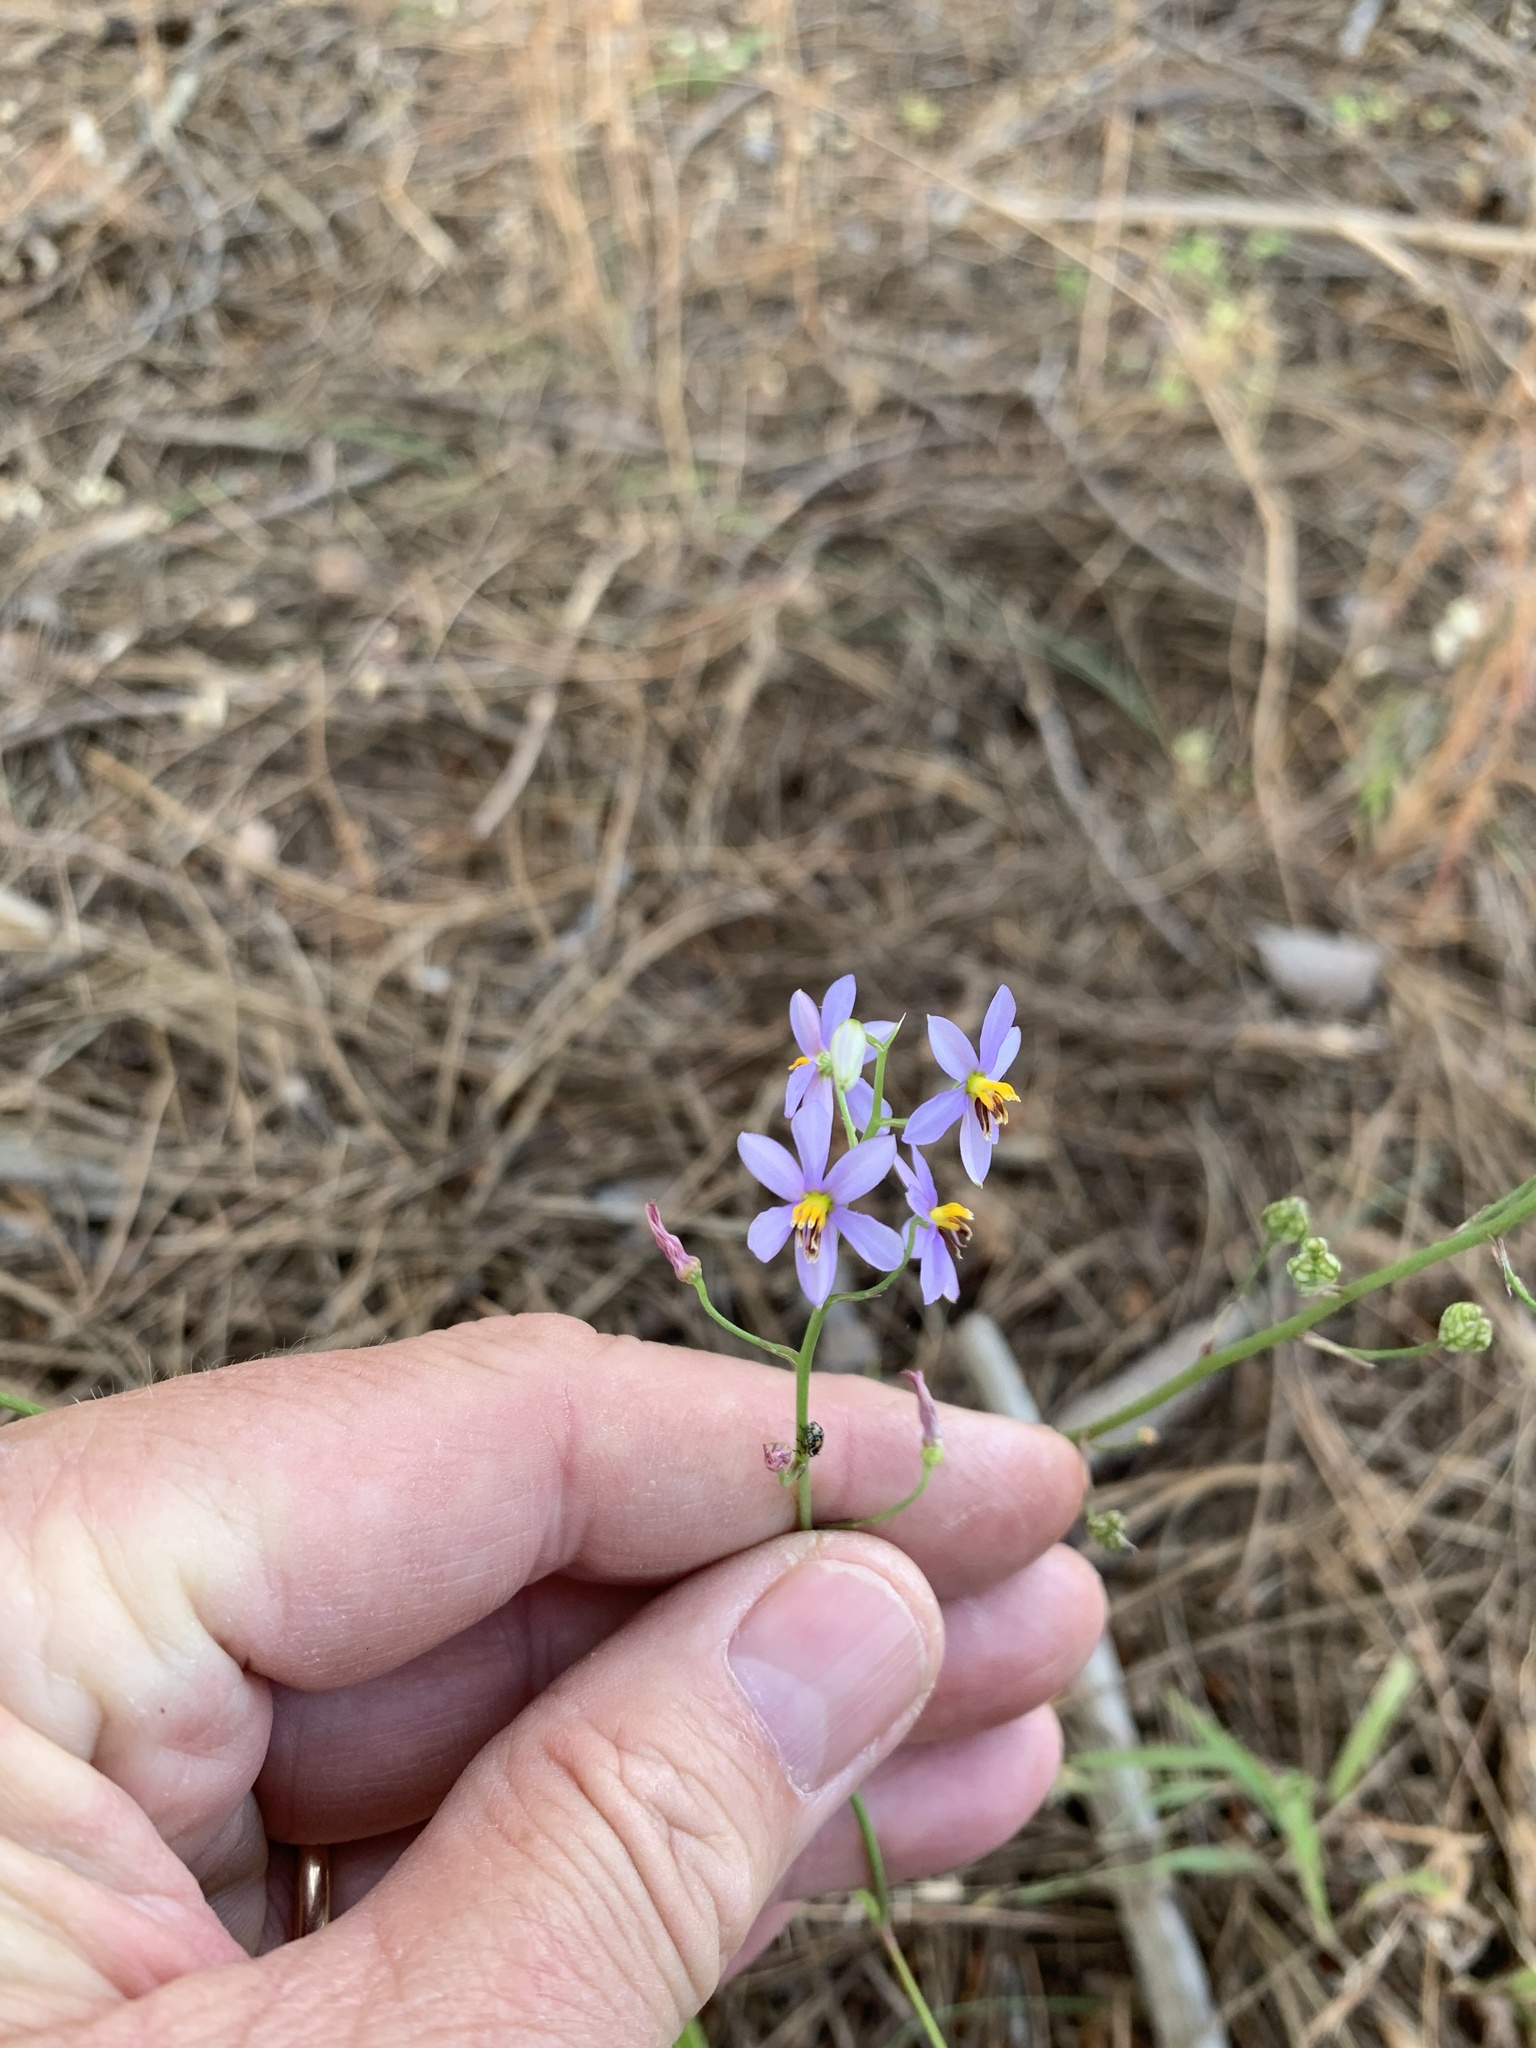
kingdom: Plantae
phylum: Tracheophyta
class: Liliopsida
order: Asparagales
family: Tecophilaeaceae
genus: Cyanella
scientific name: Cyanella hyacinthoides
